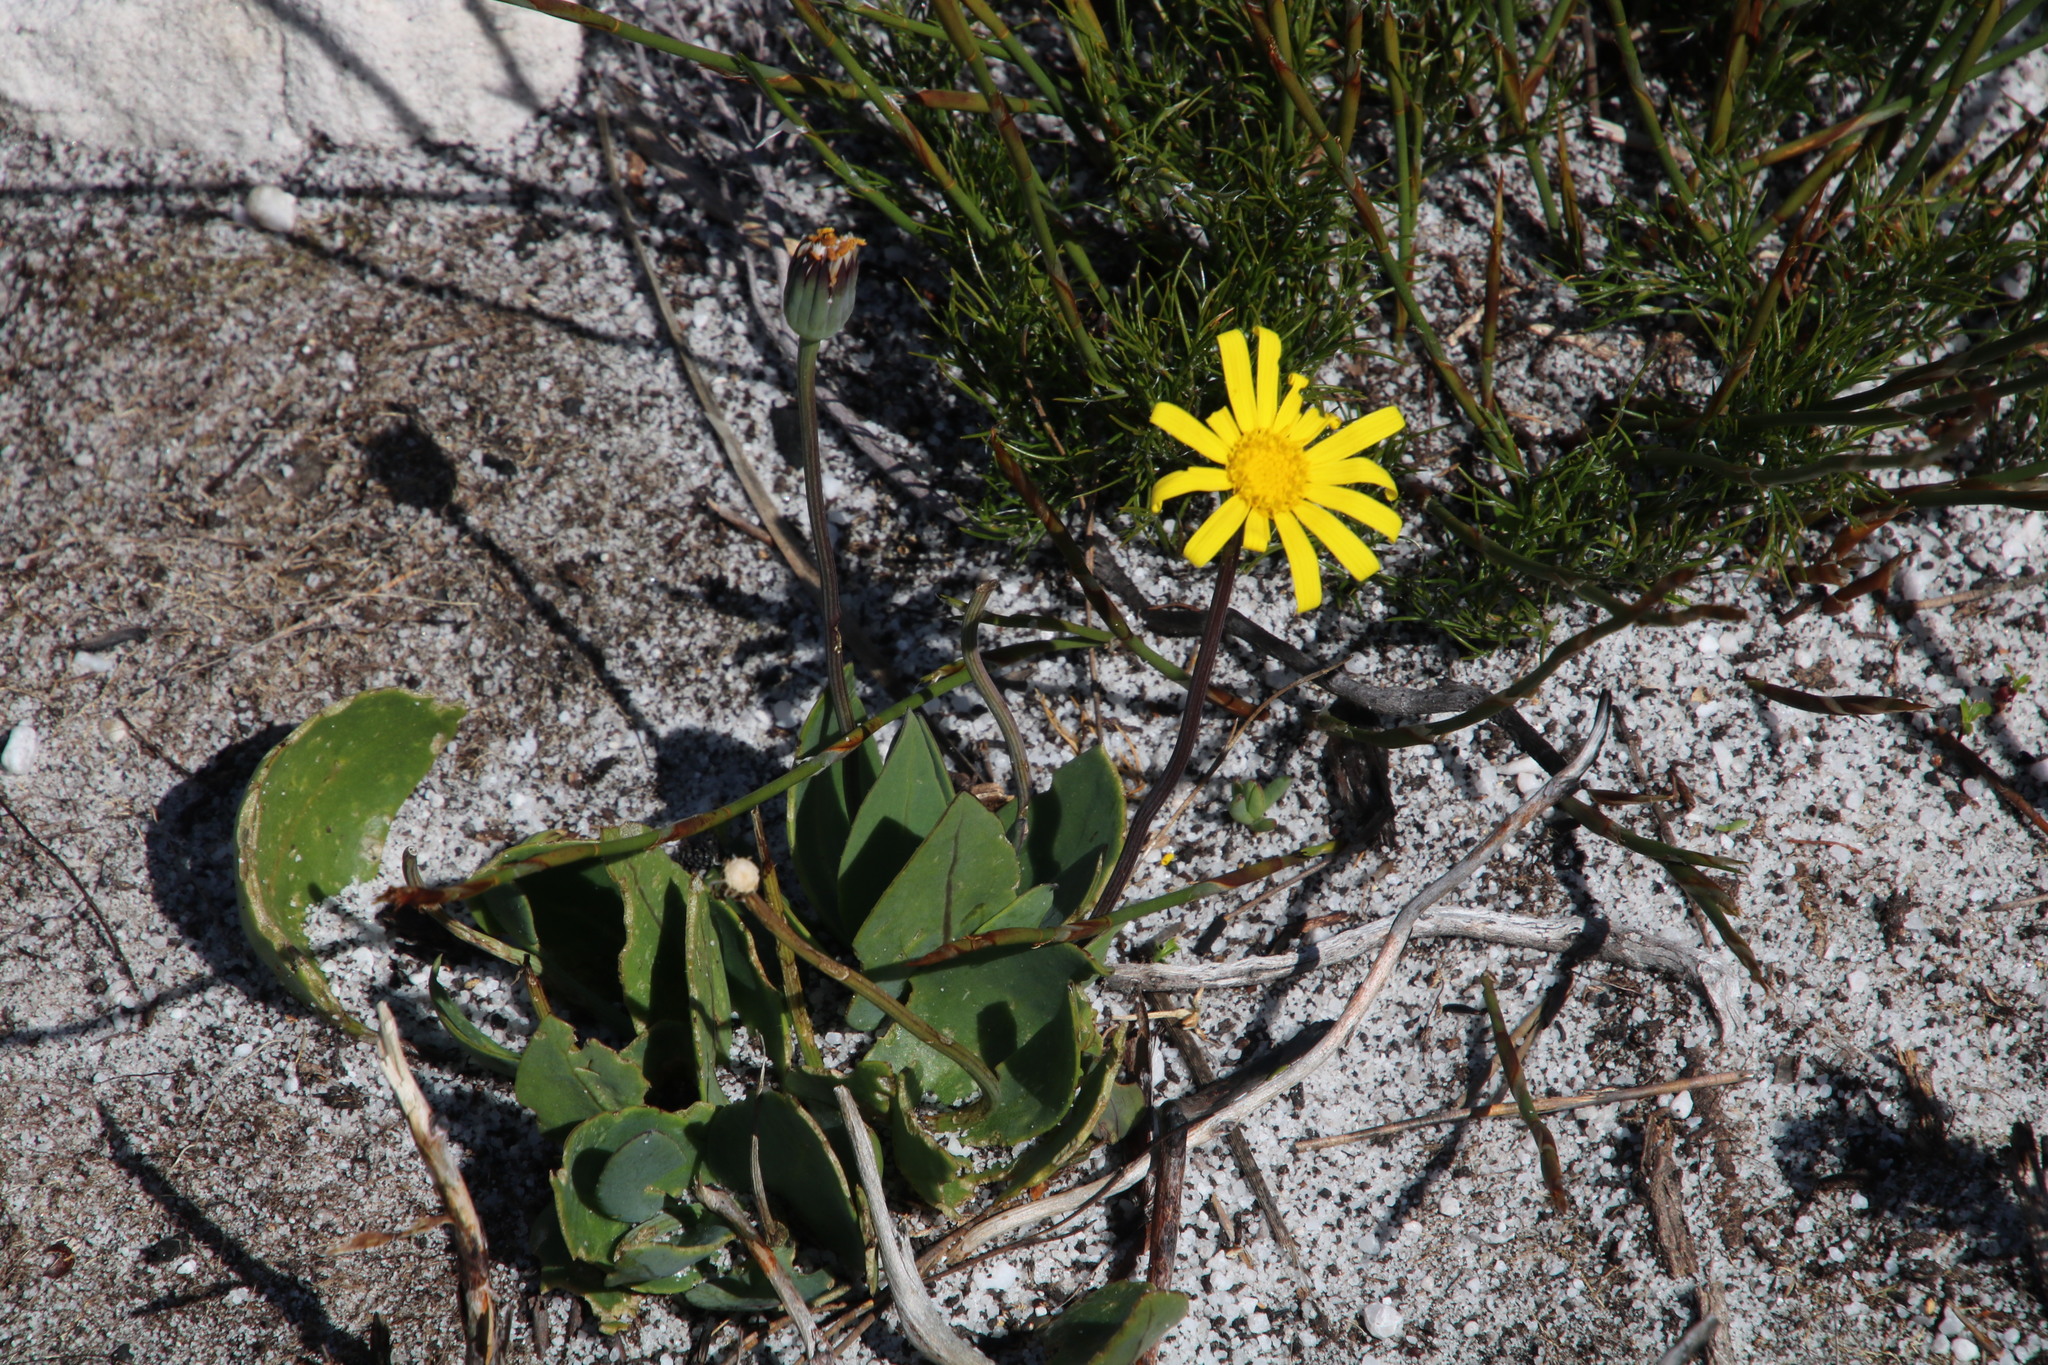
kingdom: Plantae
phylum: Tracheophyta
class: Magnoliopsida
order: Asterales
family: Asteraceae
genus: Othonna
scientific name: Othonna bulbosa
